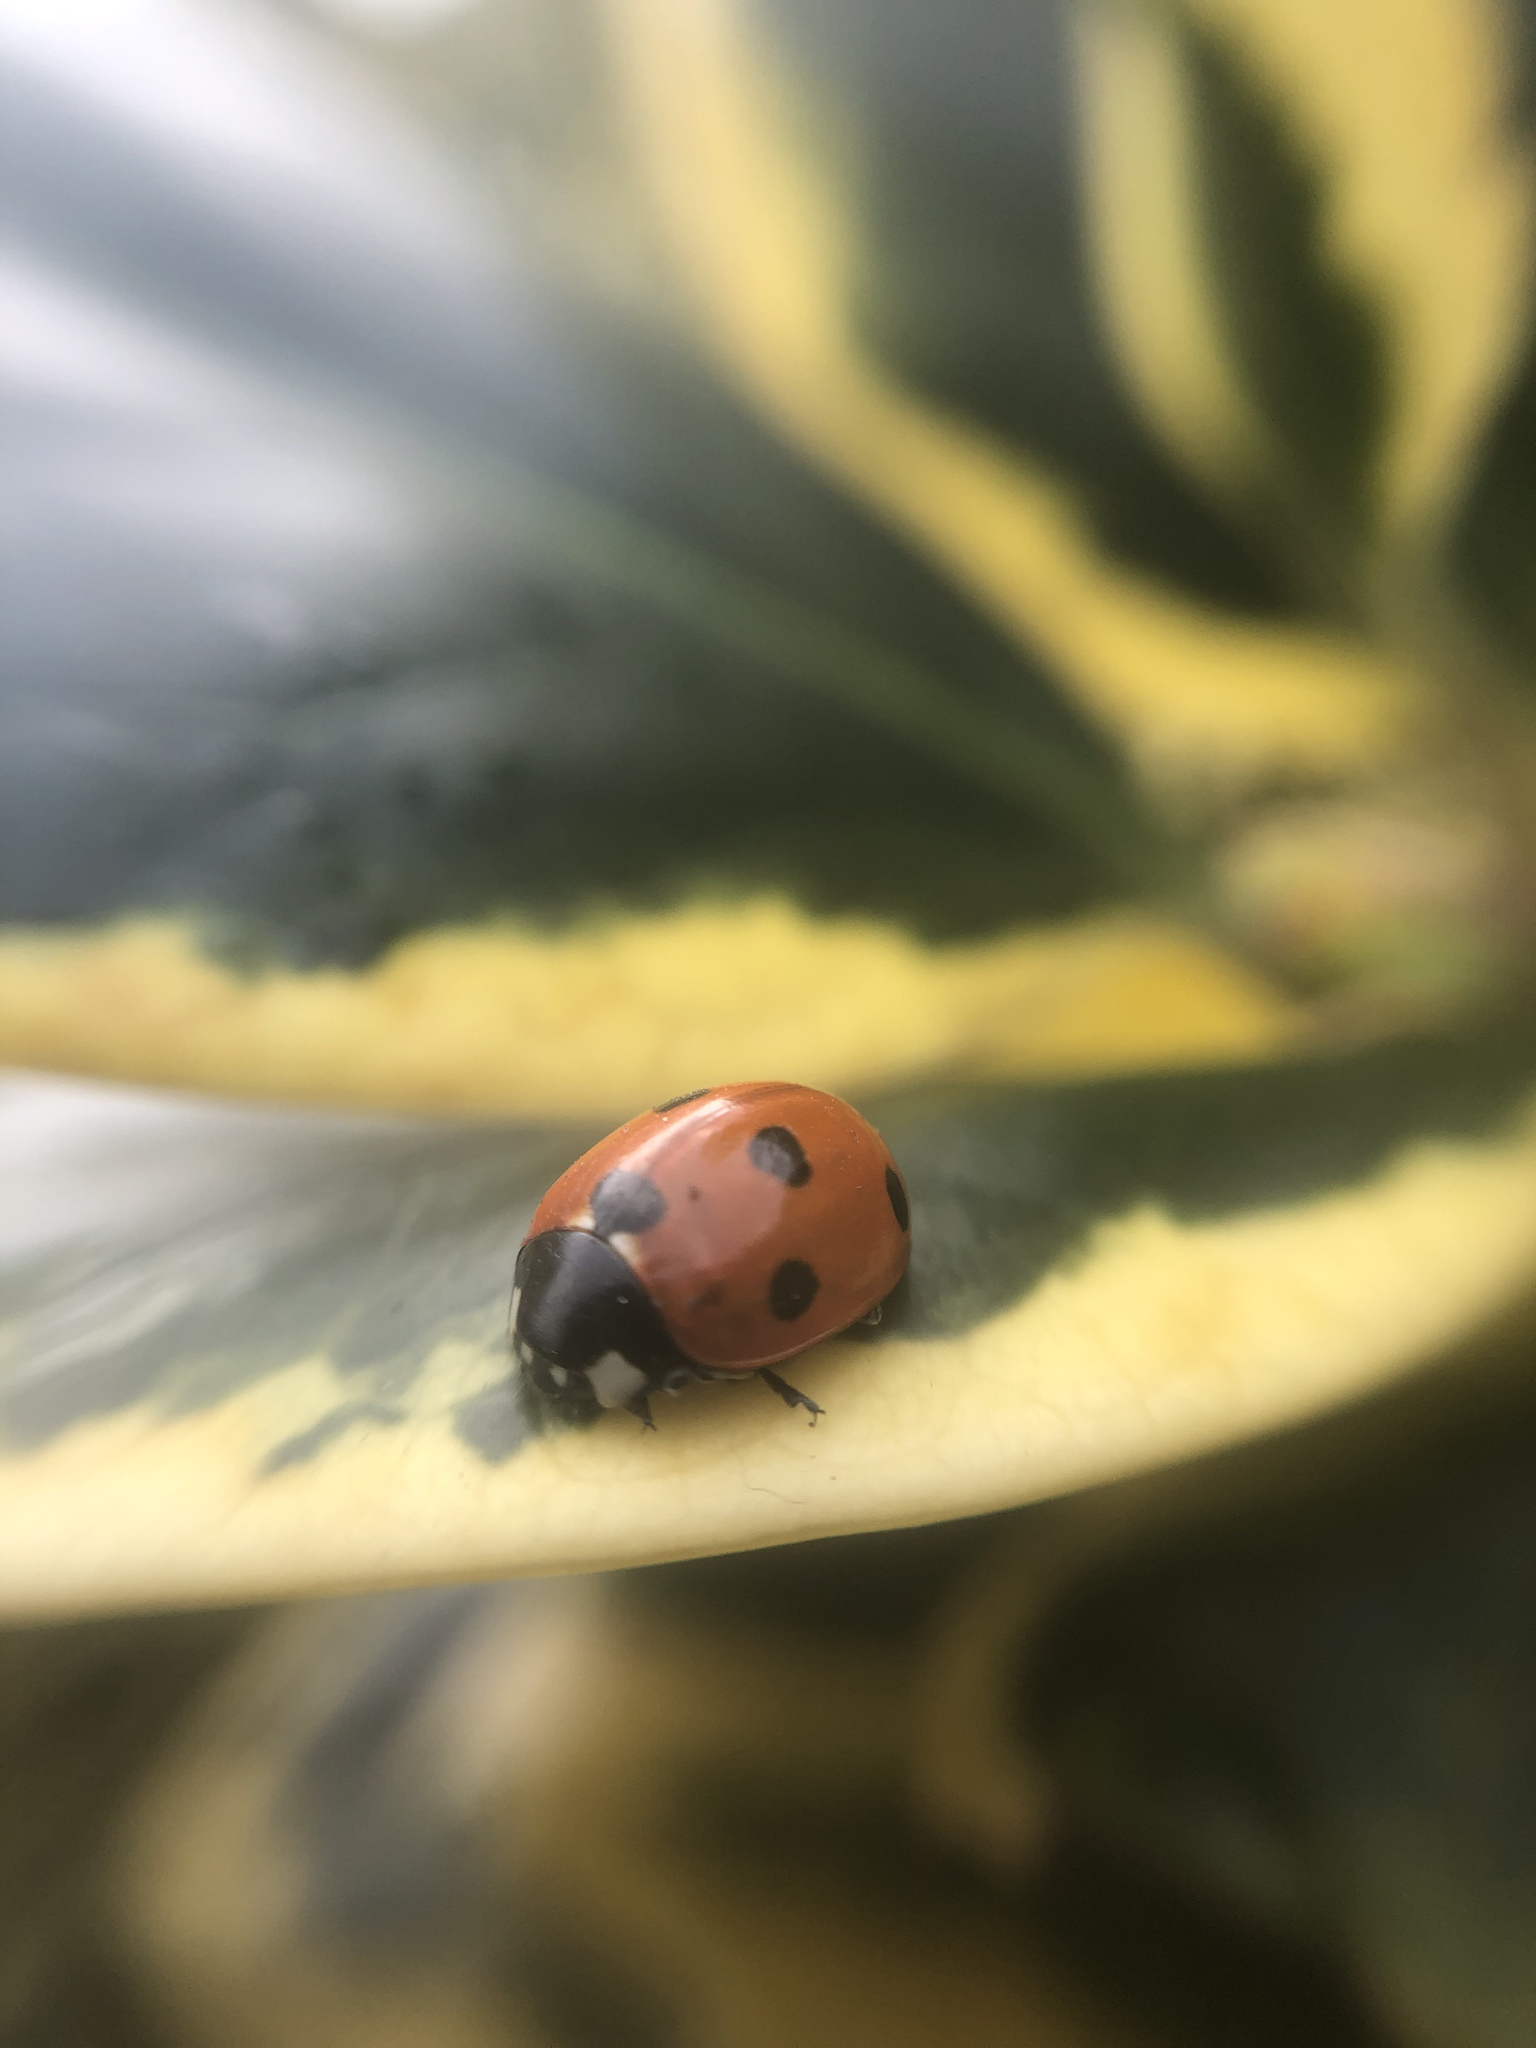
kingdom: Animalia
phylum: Arthropoda
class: Insecta
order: Coleoptera
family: Coccinellidae
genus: Coccinella
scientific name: Coccinella septempunctata
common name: Sevenspotted lady beetle
